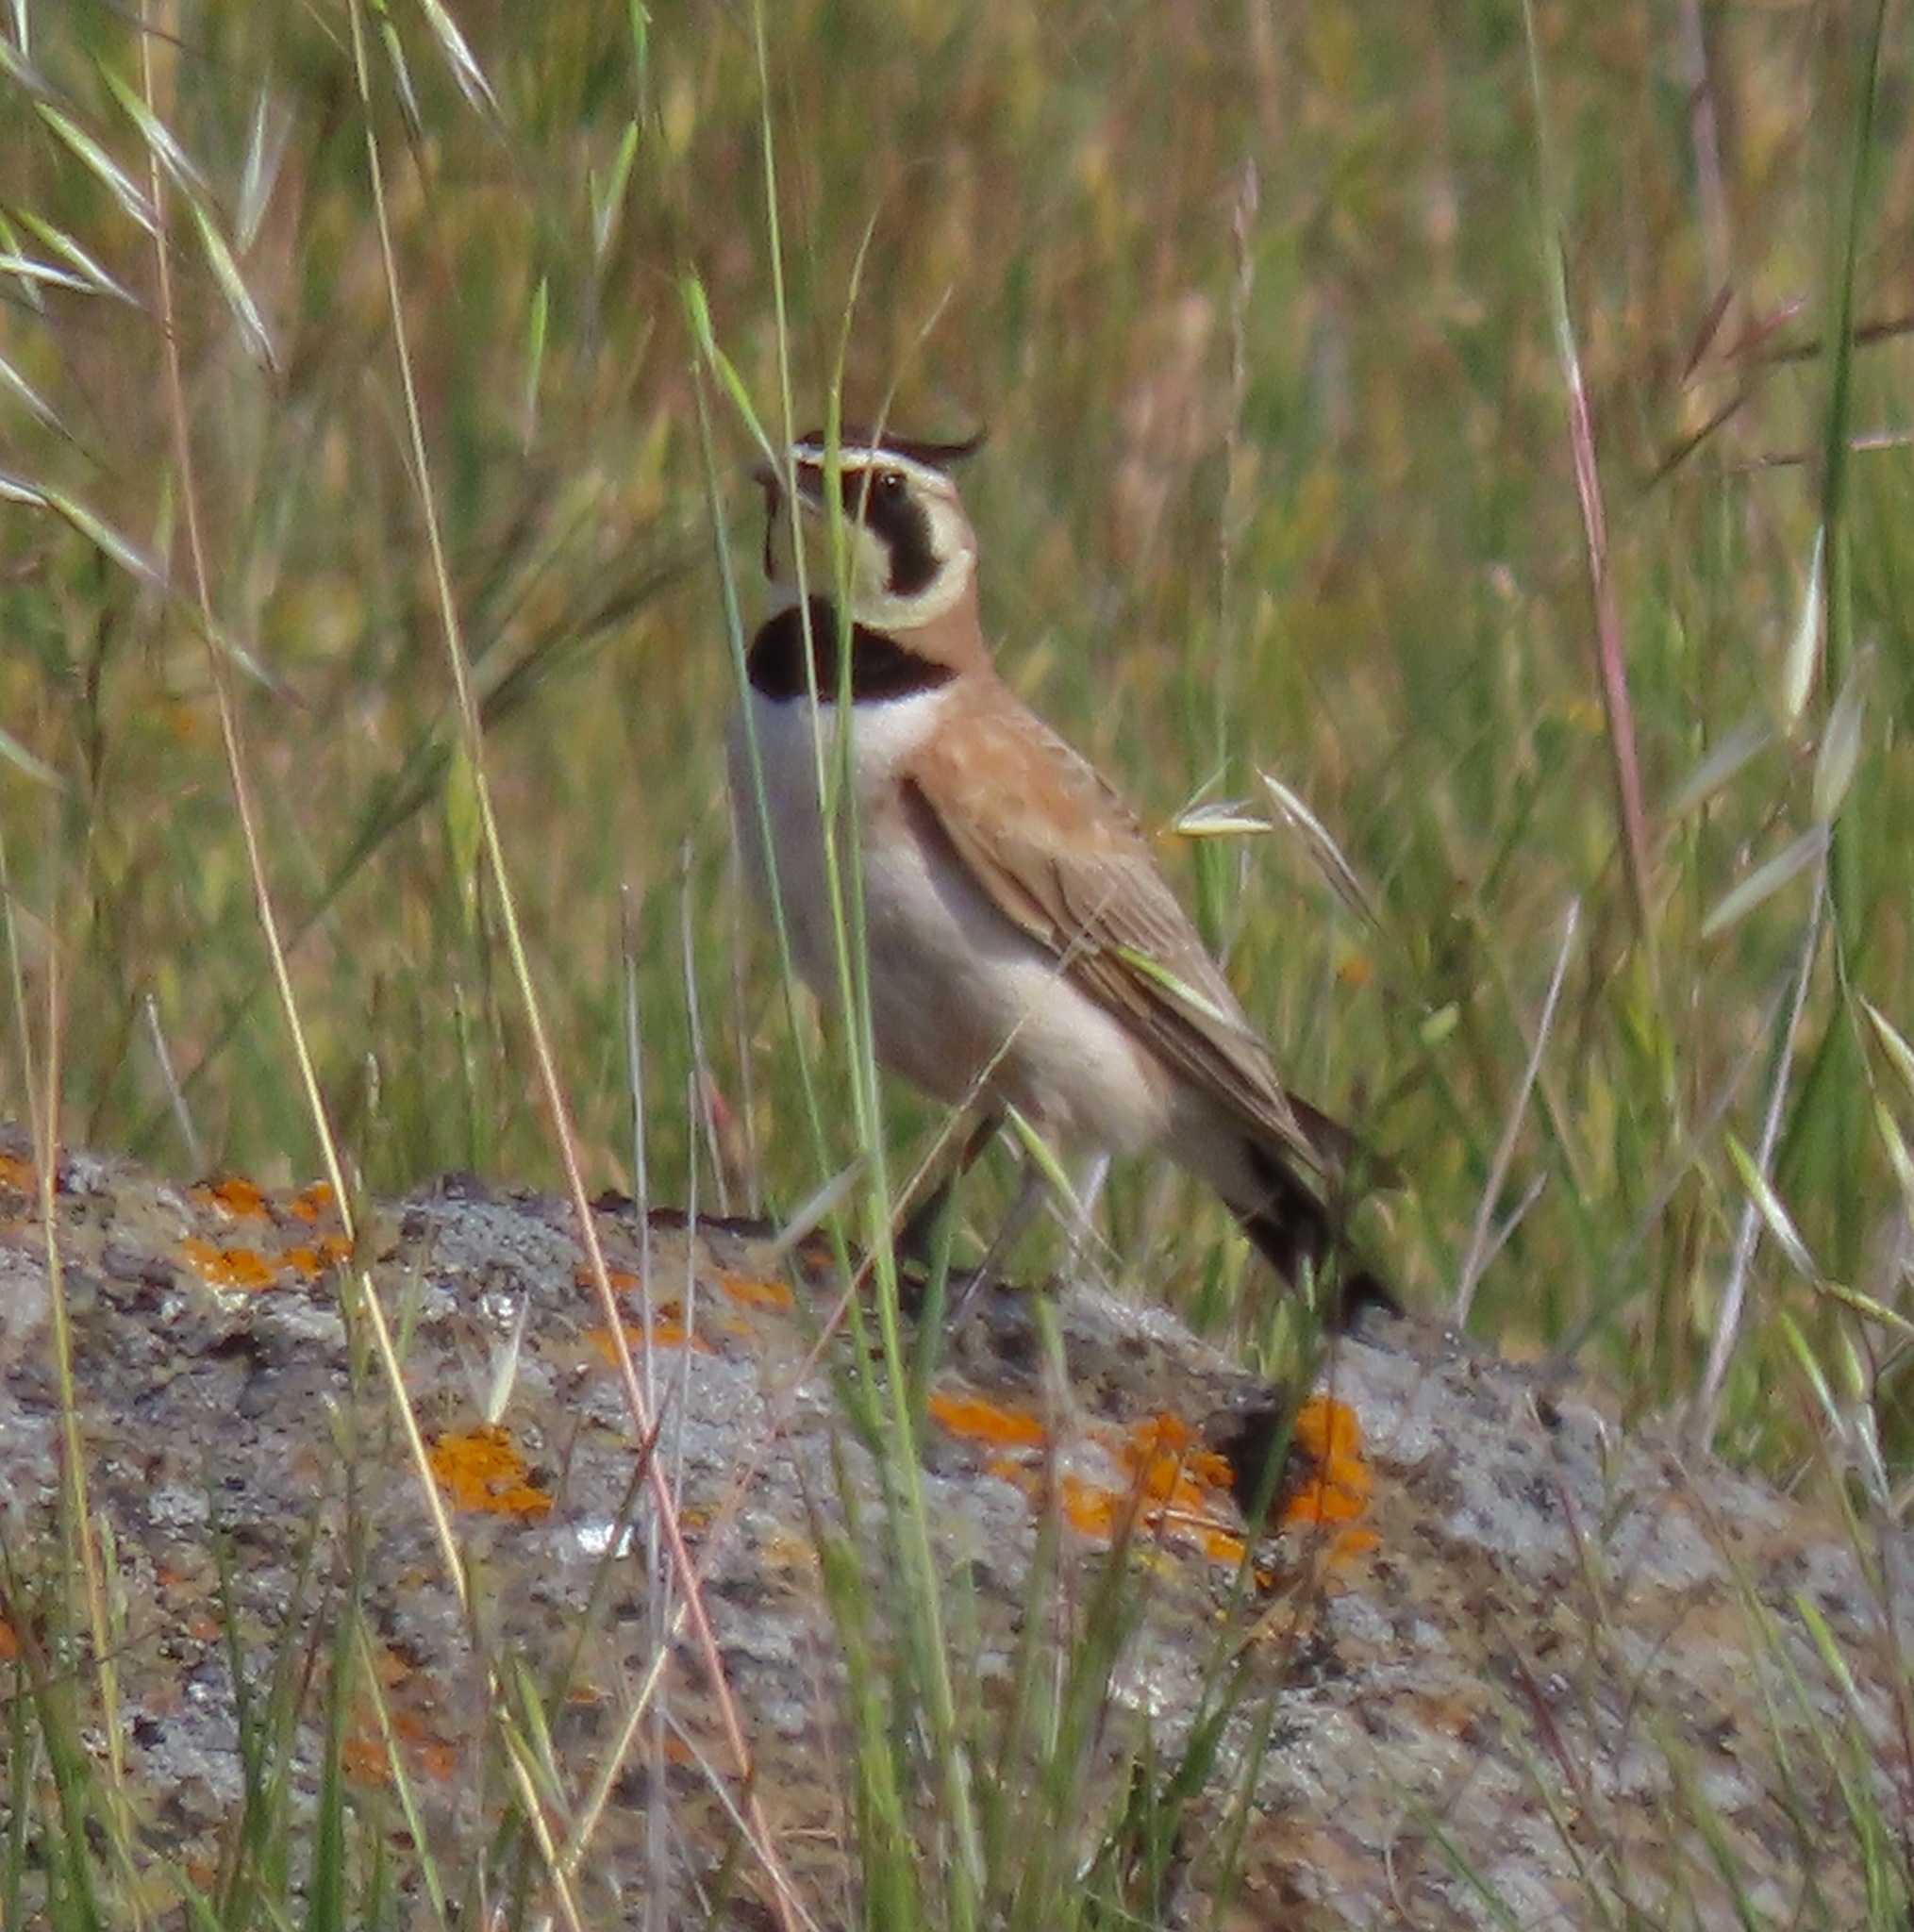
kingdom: Animalia
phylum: Chordata
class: Aves
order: Passeriformes
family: Alaudidae
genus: Eremophila
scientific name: Eremophila alpestris
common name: Horned lark
